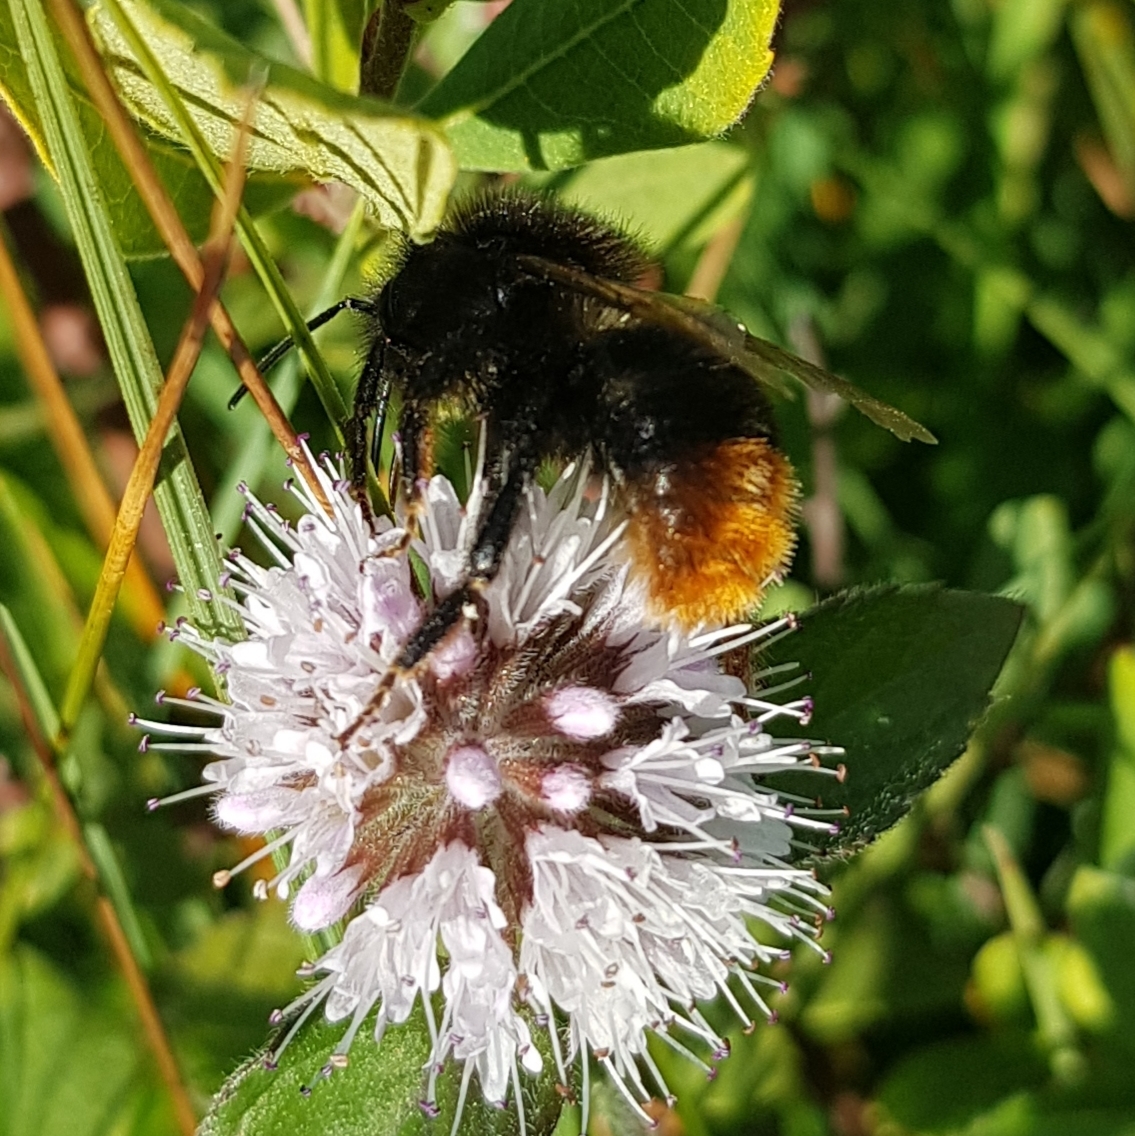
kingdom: Animalia
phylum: Arthropoda
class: Insecta
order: Hymenoptera
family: Apidae
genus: Bombus
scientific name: Bombus rupestris
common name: Hill cuckoo-bee
